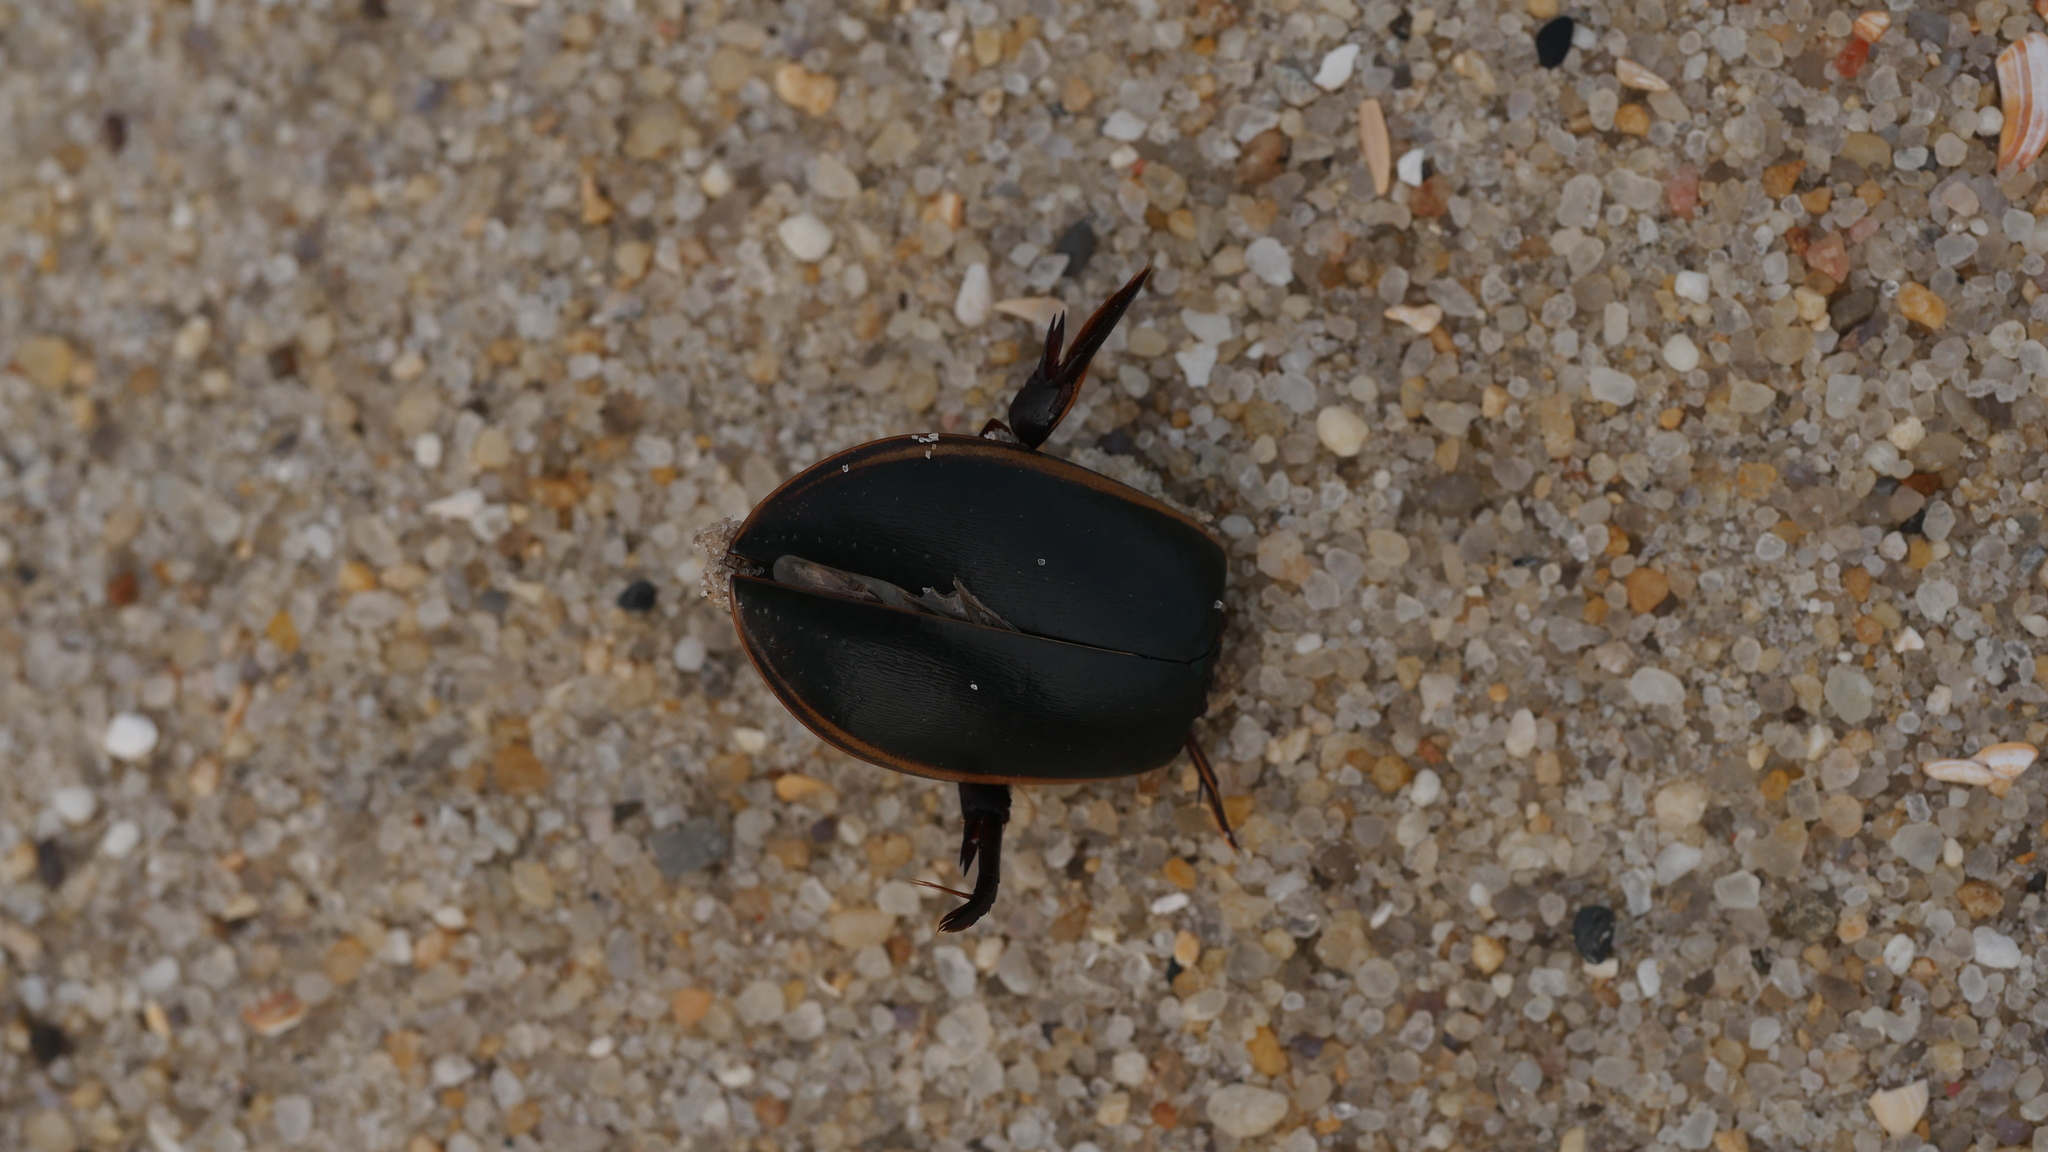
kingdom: Animalia
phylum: Arthropoda
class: Insecta
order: Coleoptera
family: Dytiscidae
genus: Cybister
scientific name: Cybister fimbriolatus
